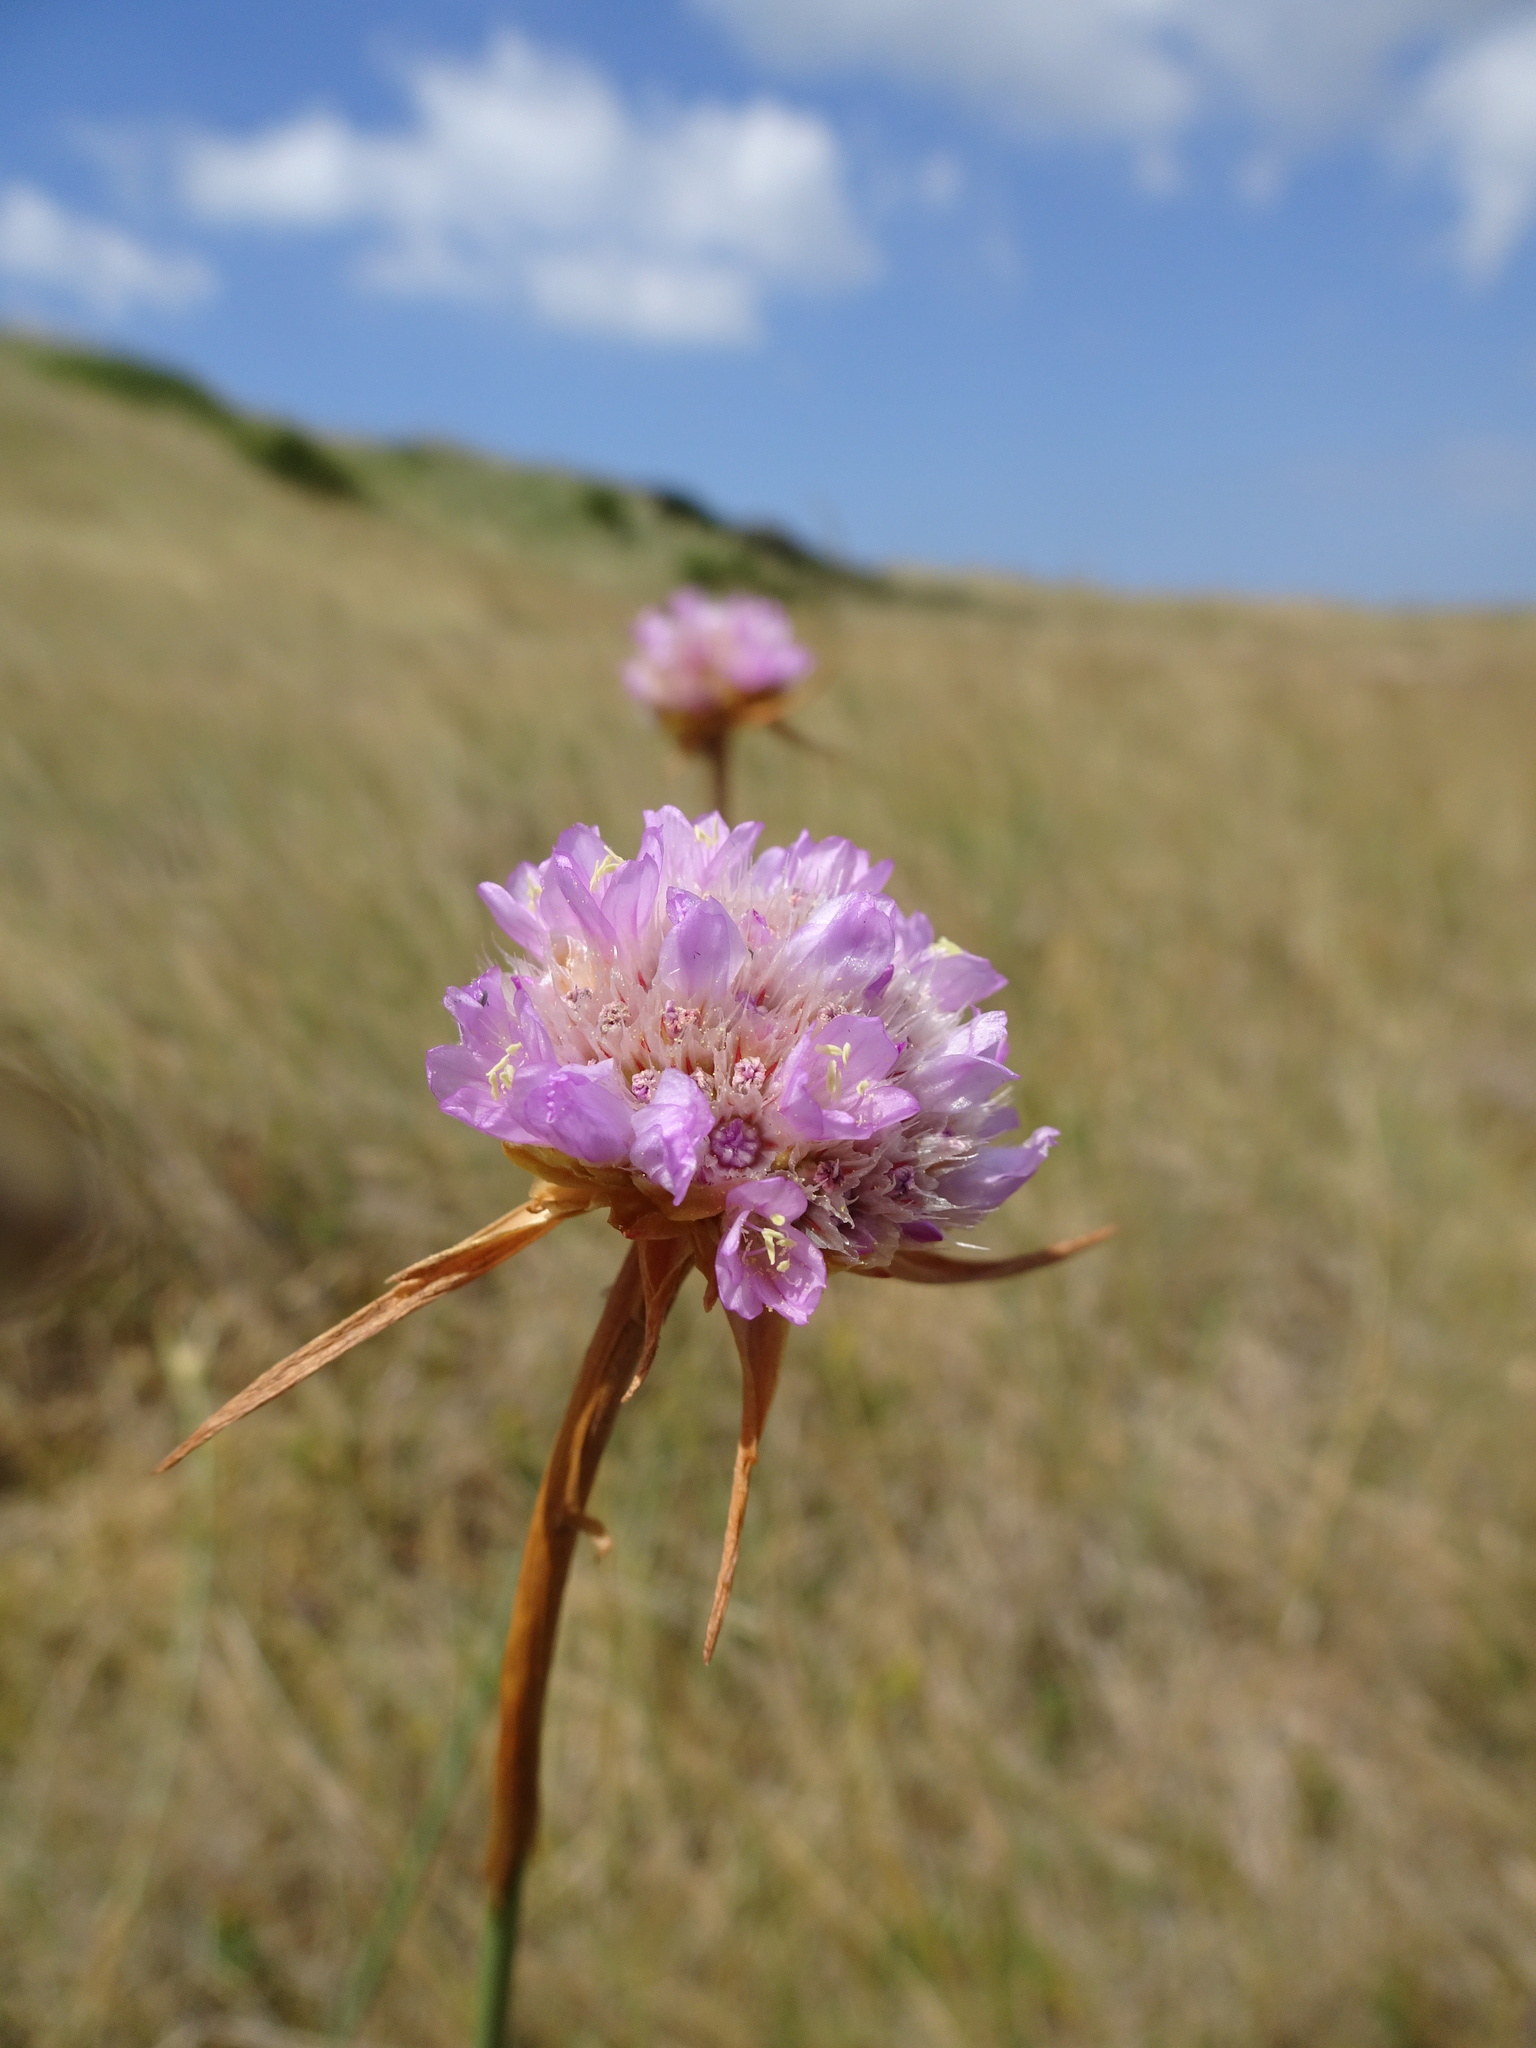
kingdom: Plantae
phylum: Tracheophyta
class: Magnoliopsida
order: Caryophyllales
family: Plumbaginaceae
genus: Armeria
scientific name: Armeria maritima
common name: Thrift
